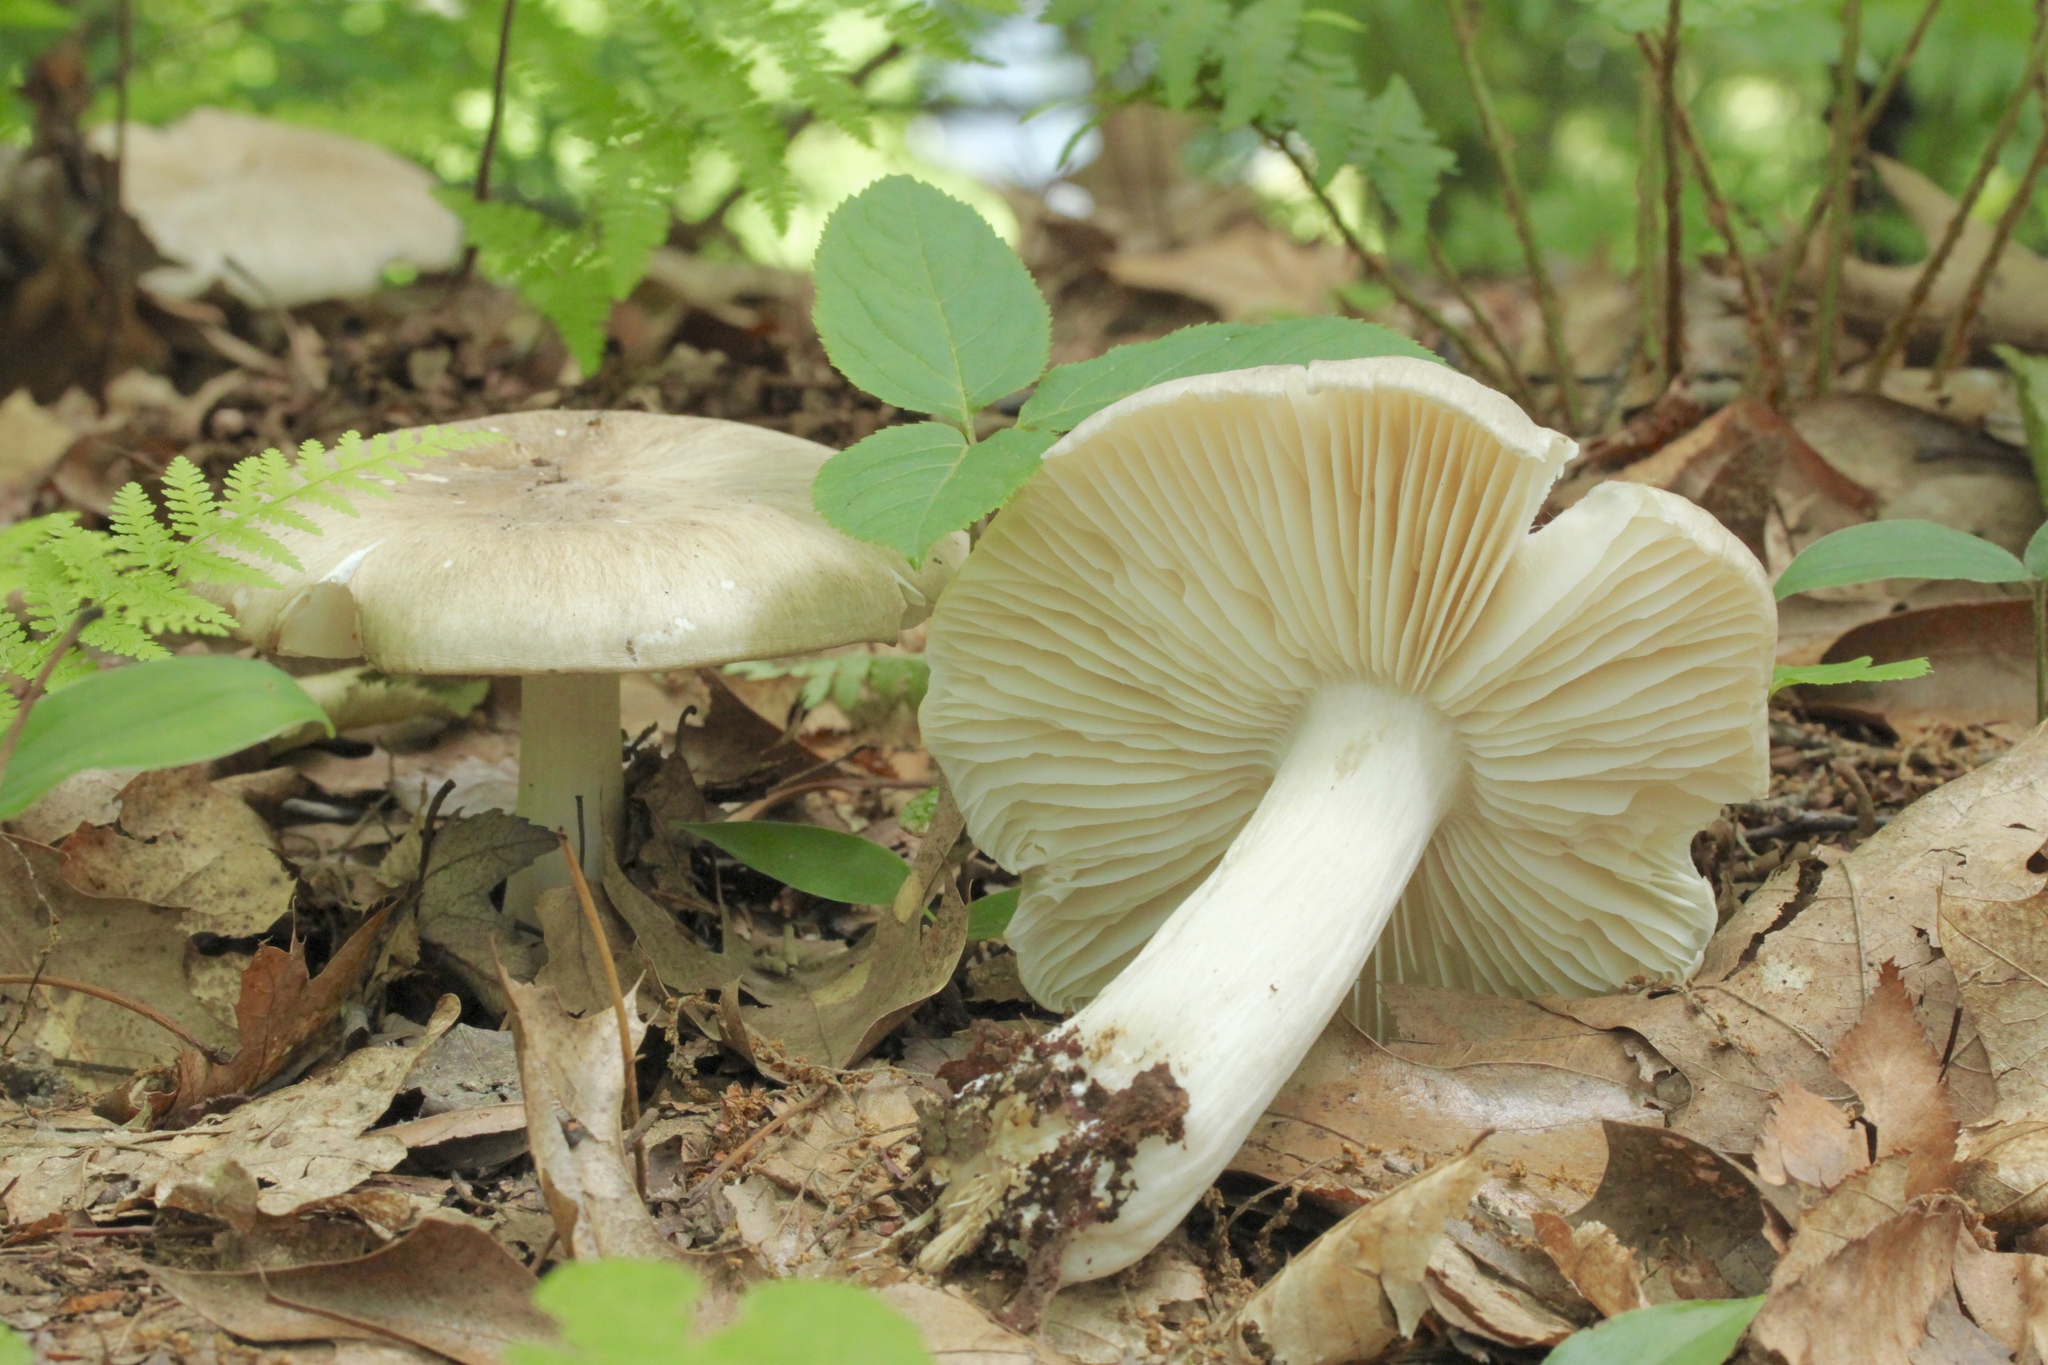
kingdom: Fungi
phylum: Basidiomycota
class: Agaricomycetes
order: Agaricales
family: Tricholomataceae
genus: Megacollybia
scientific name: Megacollybia rodmanii
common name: Eastern american platterful mushroom
